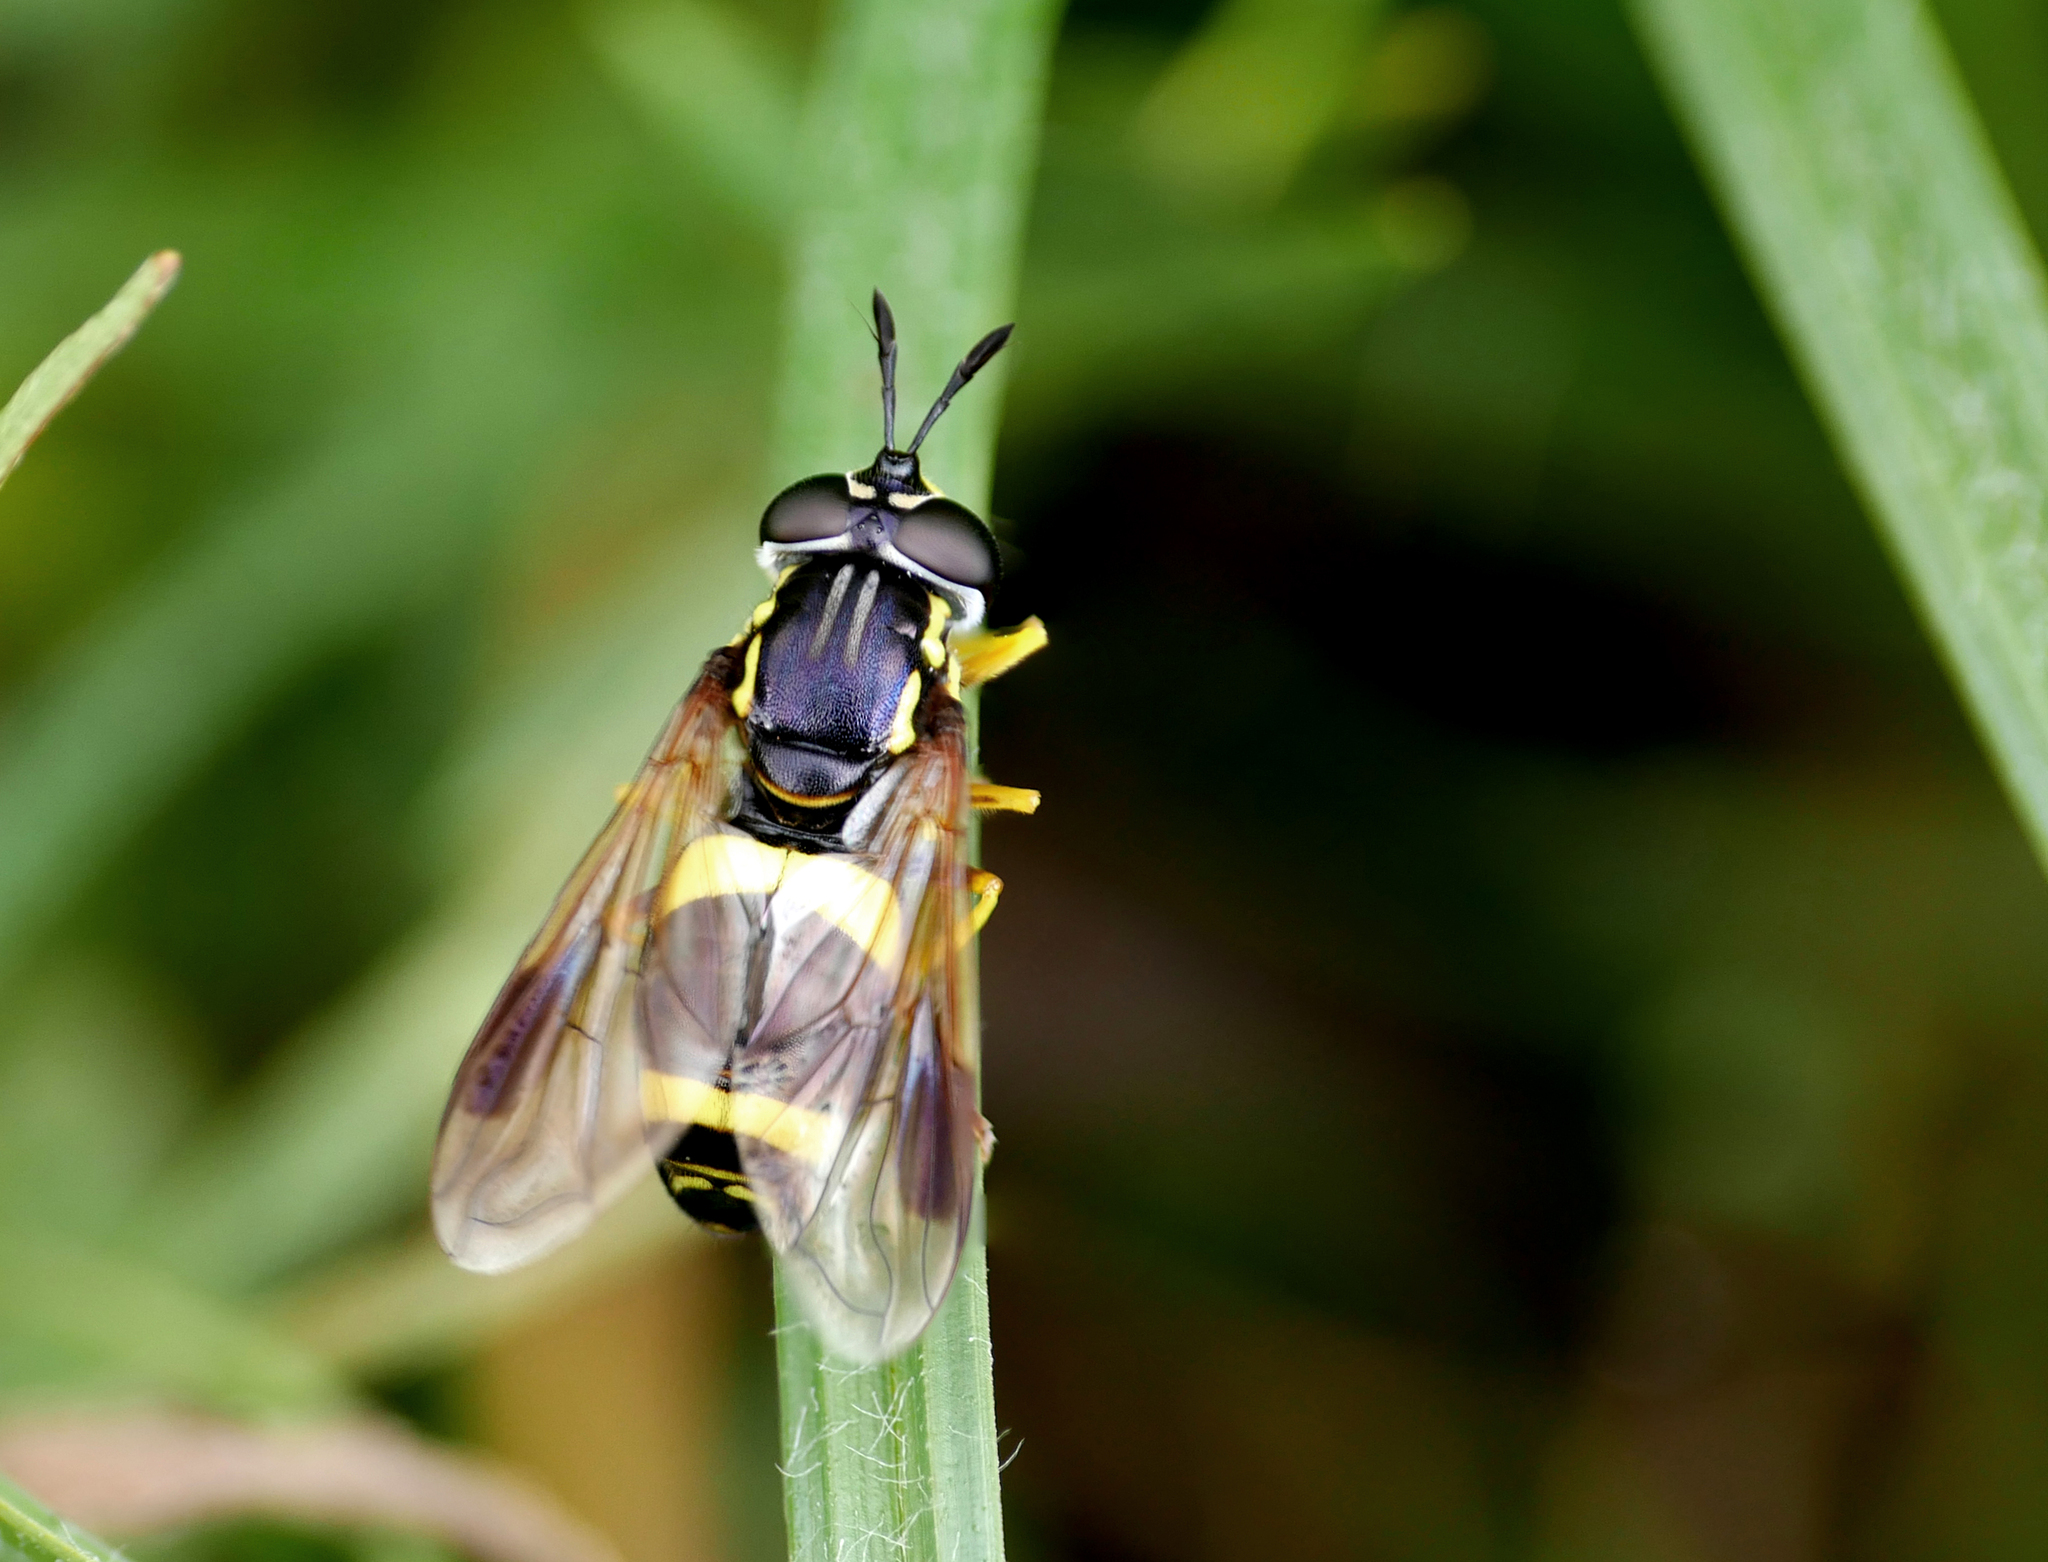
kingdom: Animalia
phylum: Arthropoda
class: Insecta
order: Diptera
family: Syrphidae
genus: Chrysotoxum
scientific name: Chrysotoxum bicincta
